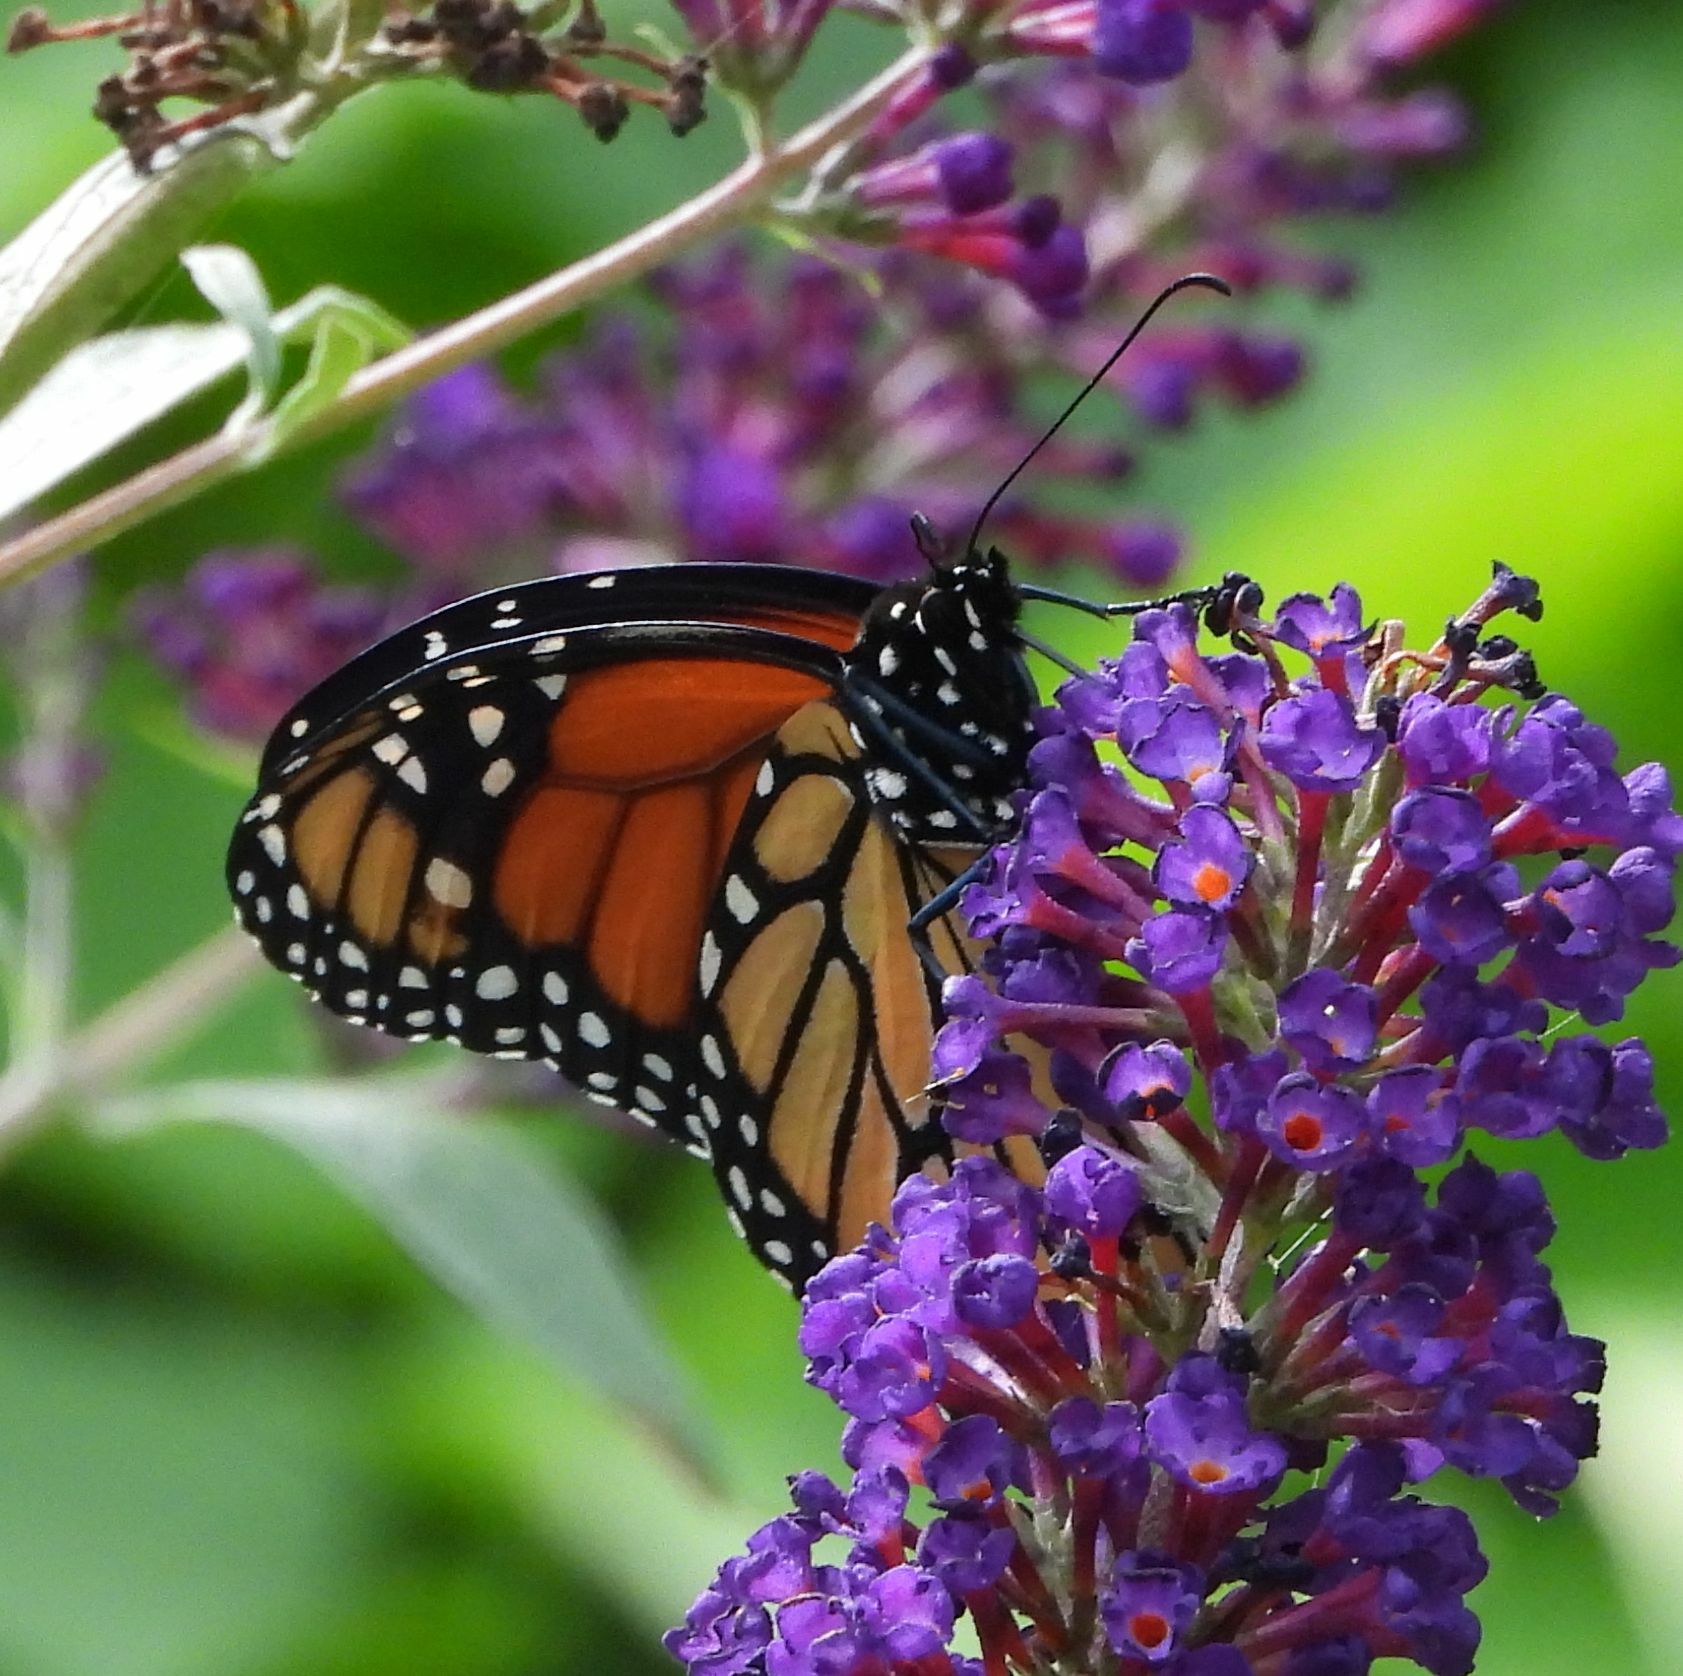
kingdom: Animalia
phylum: Arthropoda
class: Insecta
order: Lepidoptera
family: Nymphalidae
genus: Danaus
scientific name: Danaus plexippus
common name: Monarch
